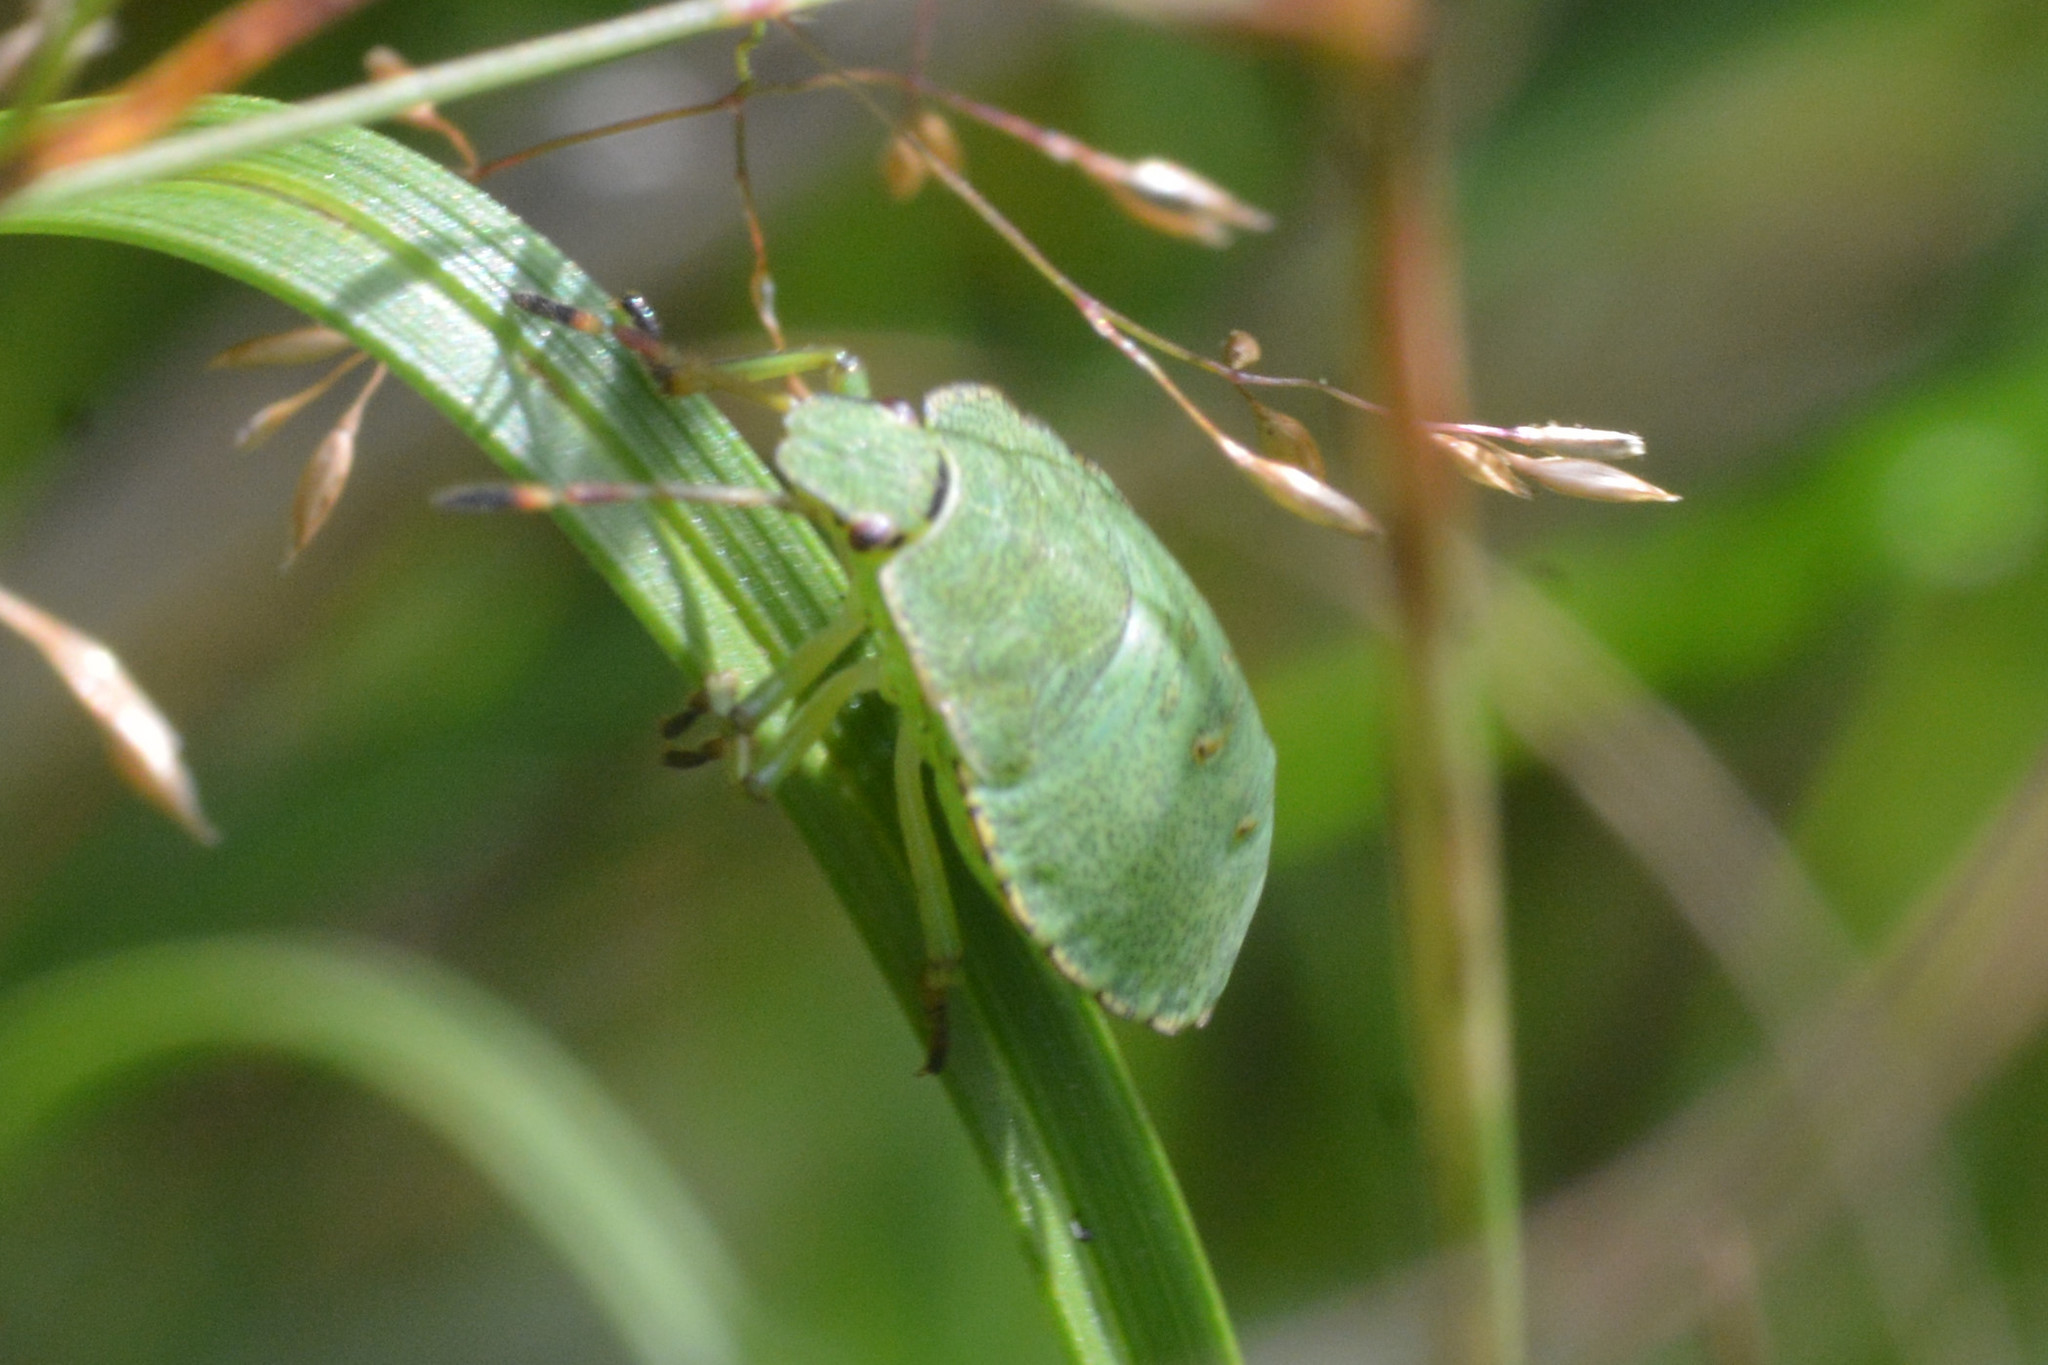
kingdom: Animalia
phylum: Arthropoda
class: Insecta
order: Hemiptera
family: Pentatomidae
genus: Palomena
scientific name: Palomena prasina
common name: Green shieldbug
